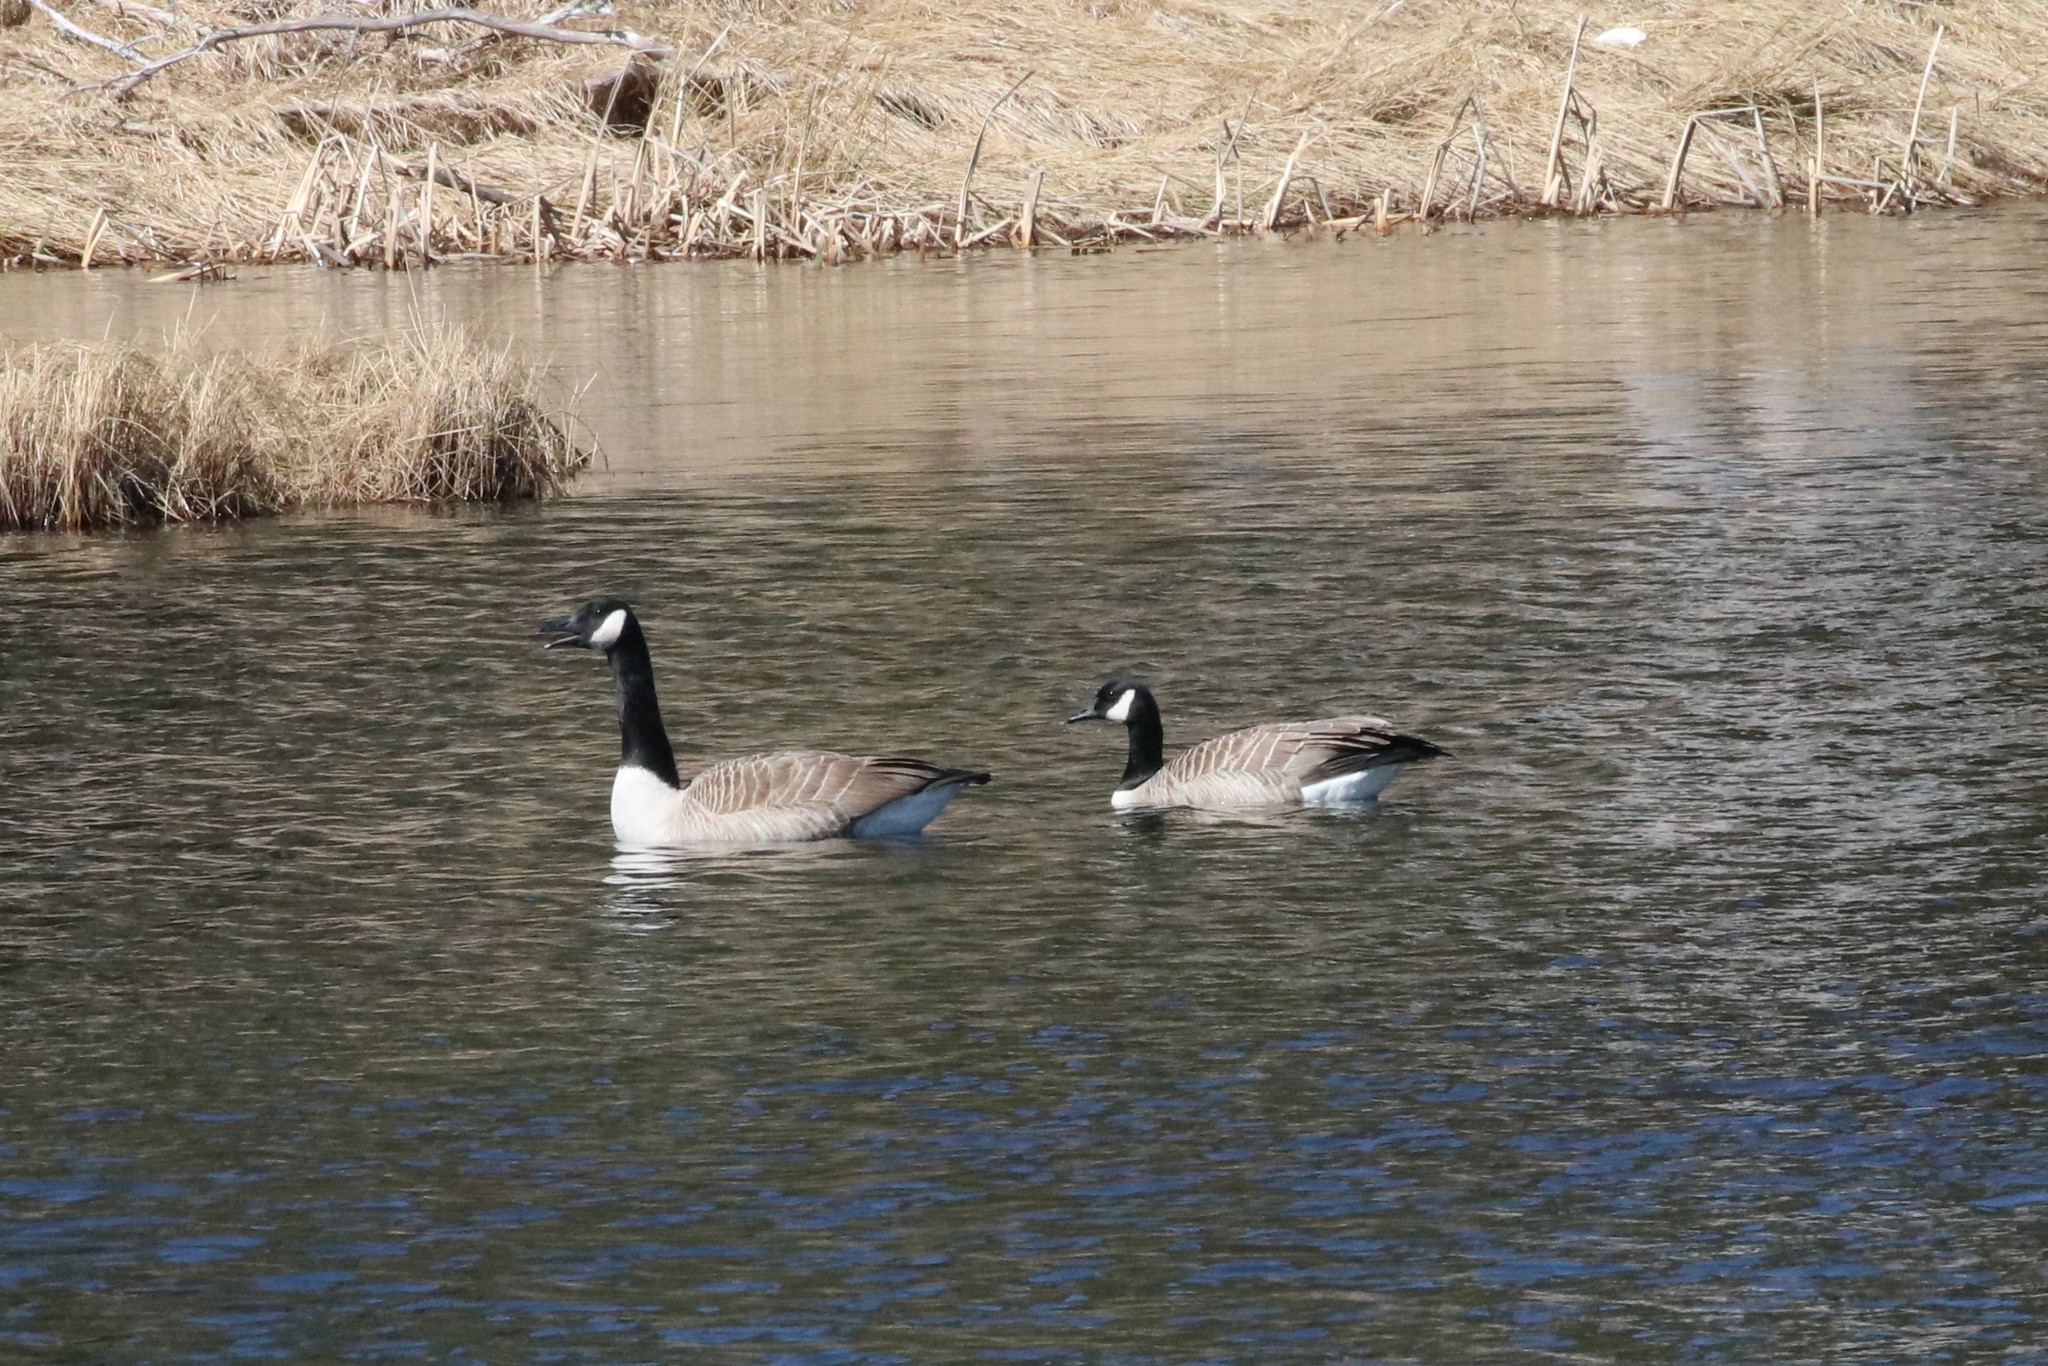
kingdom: Animalia
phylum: Chordata
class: Aves
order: Anseriformes
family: Anatidae
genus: Branta
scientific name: Branta canadensis
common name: Canada goose
